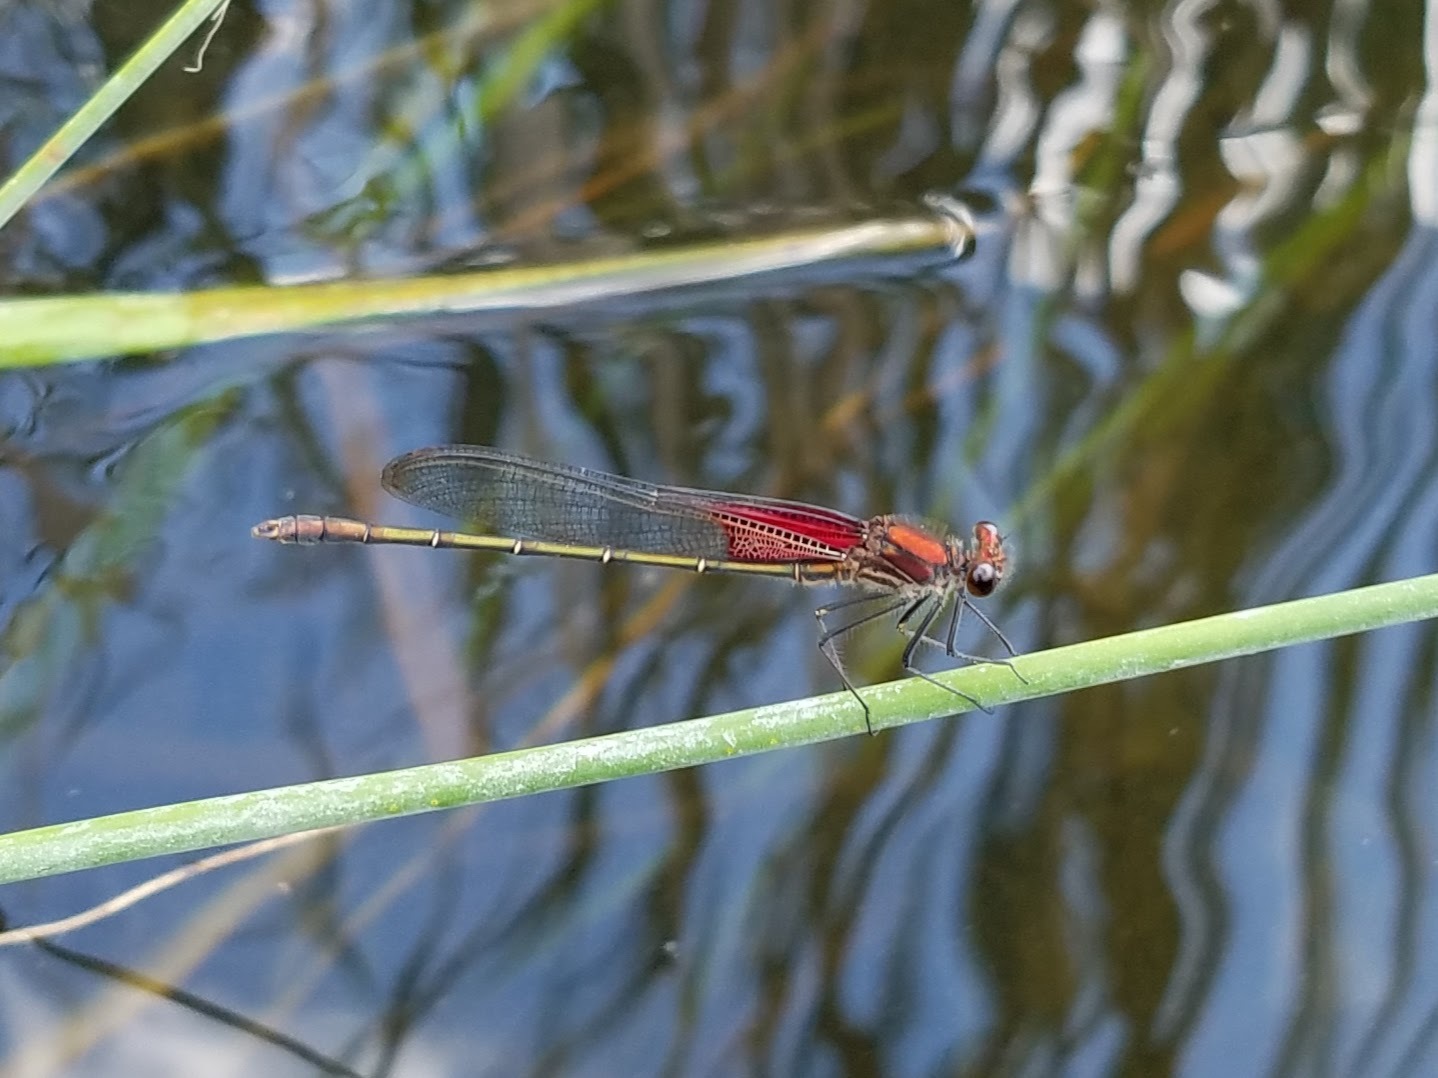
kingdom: Animalia
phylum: Arthropoda
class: Insecta
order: Odonata
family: Calopterygidae
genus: Hetaerina
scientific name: Hetaerina americana
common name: American rubyspot
